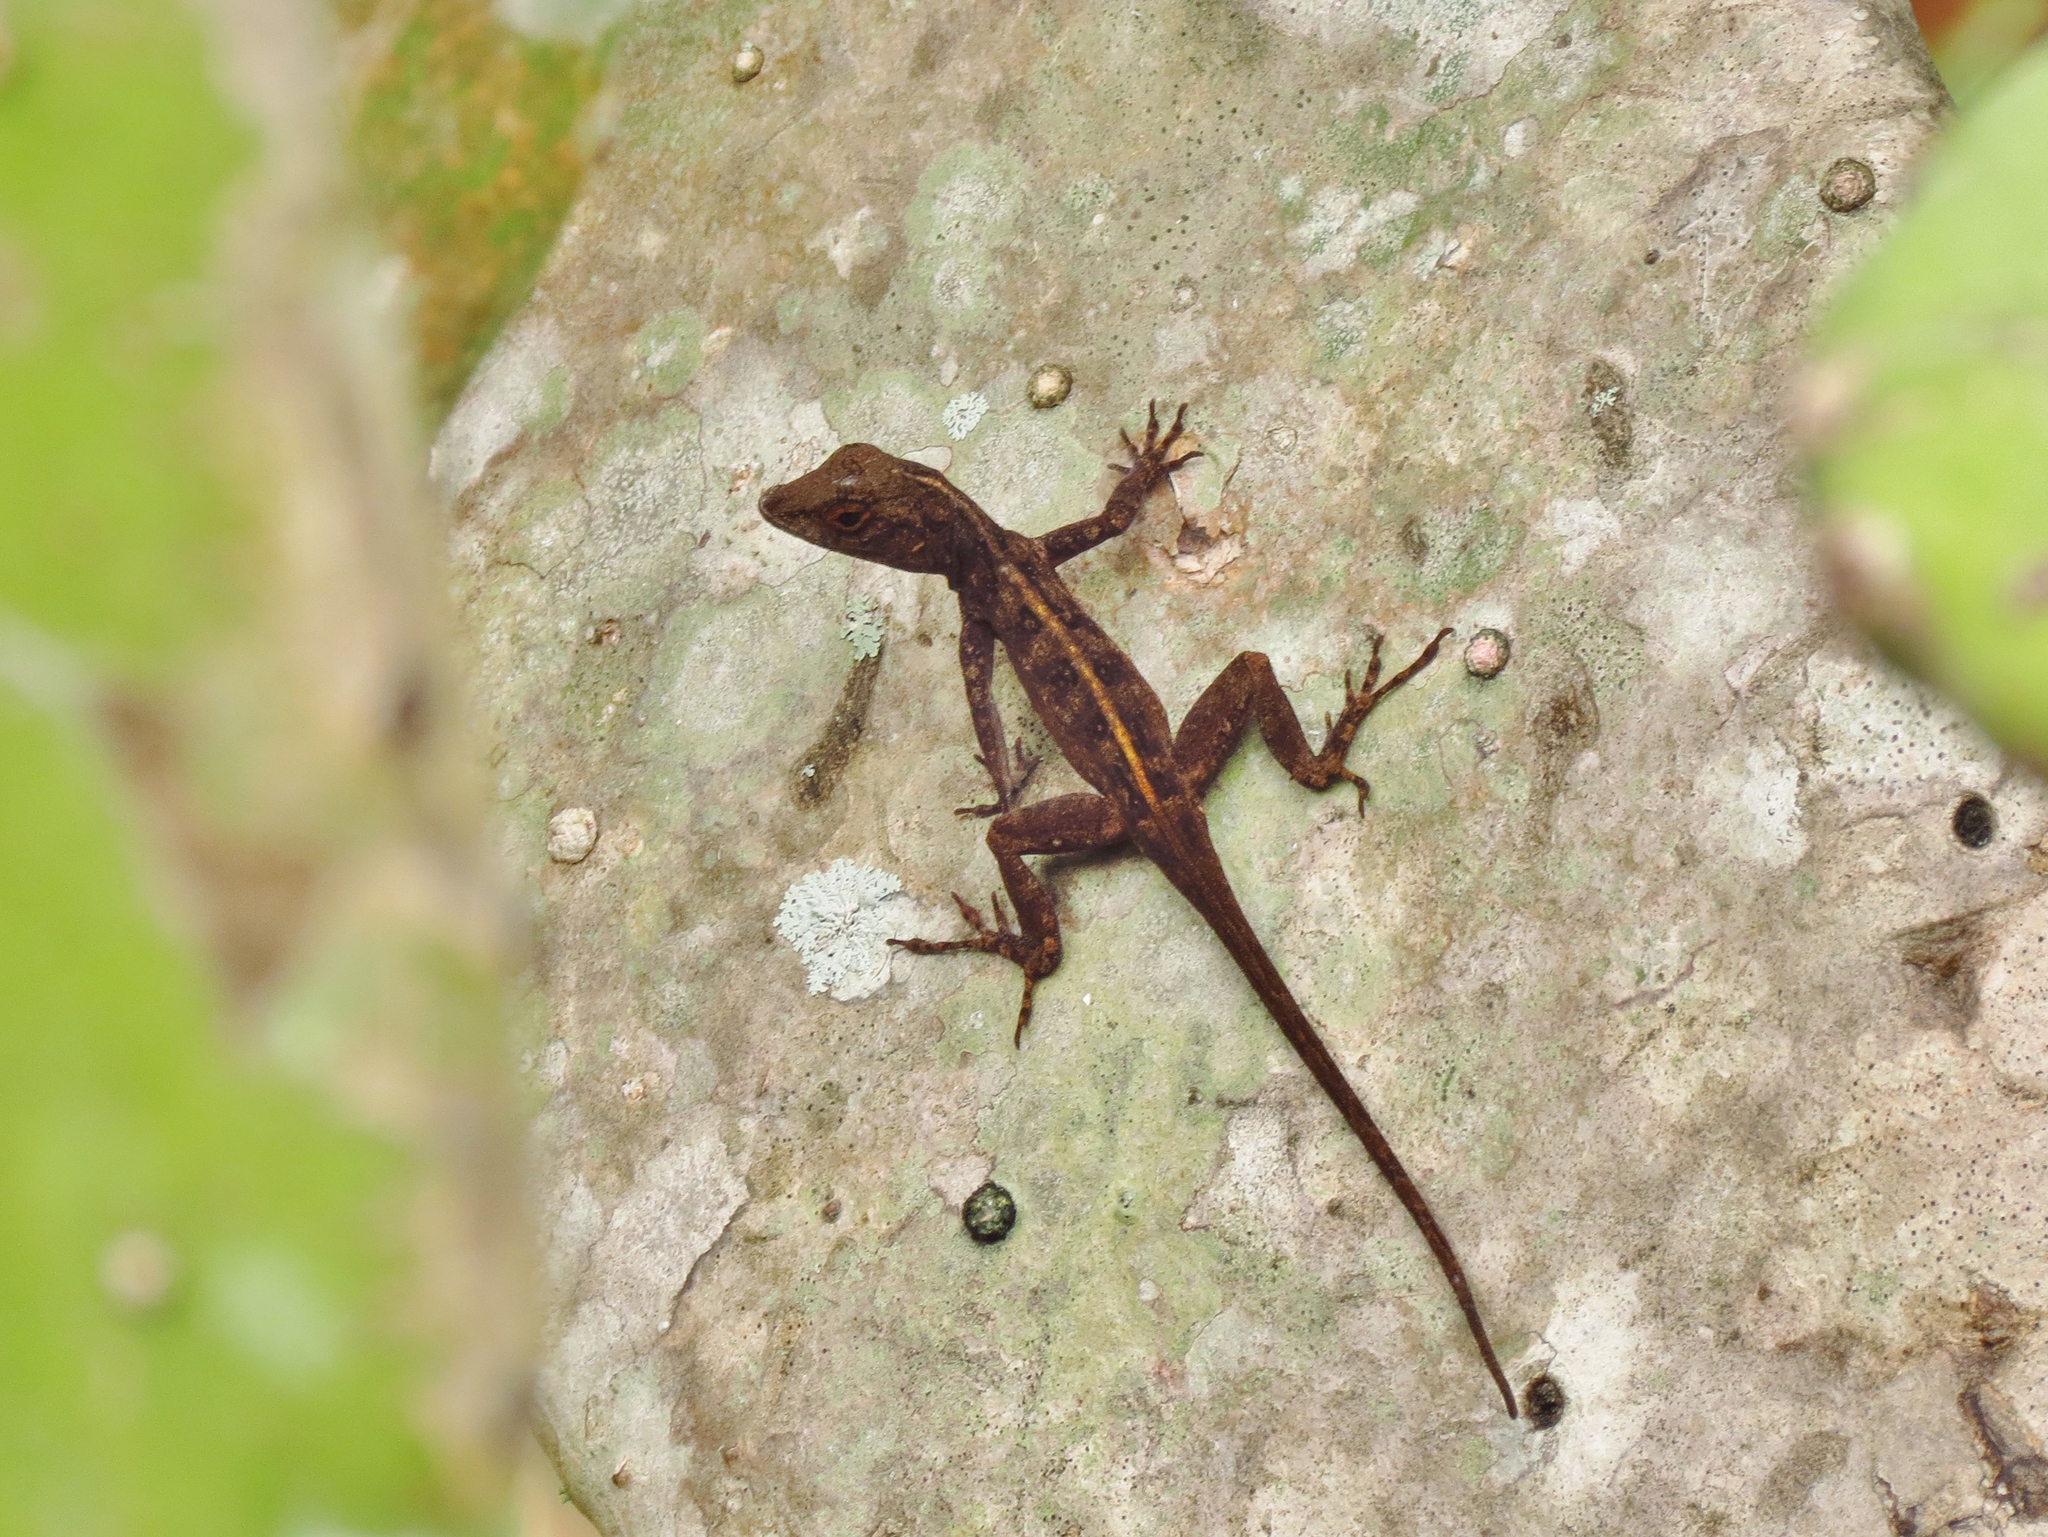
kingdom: Animalia
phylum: Chordata
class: Squamata
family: Dactyloidae
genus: Anolis
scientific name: Anolis cristatellus
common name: Crested anole
